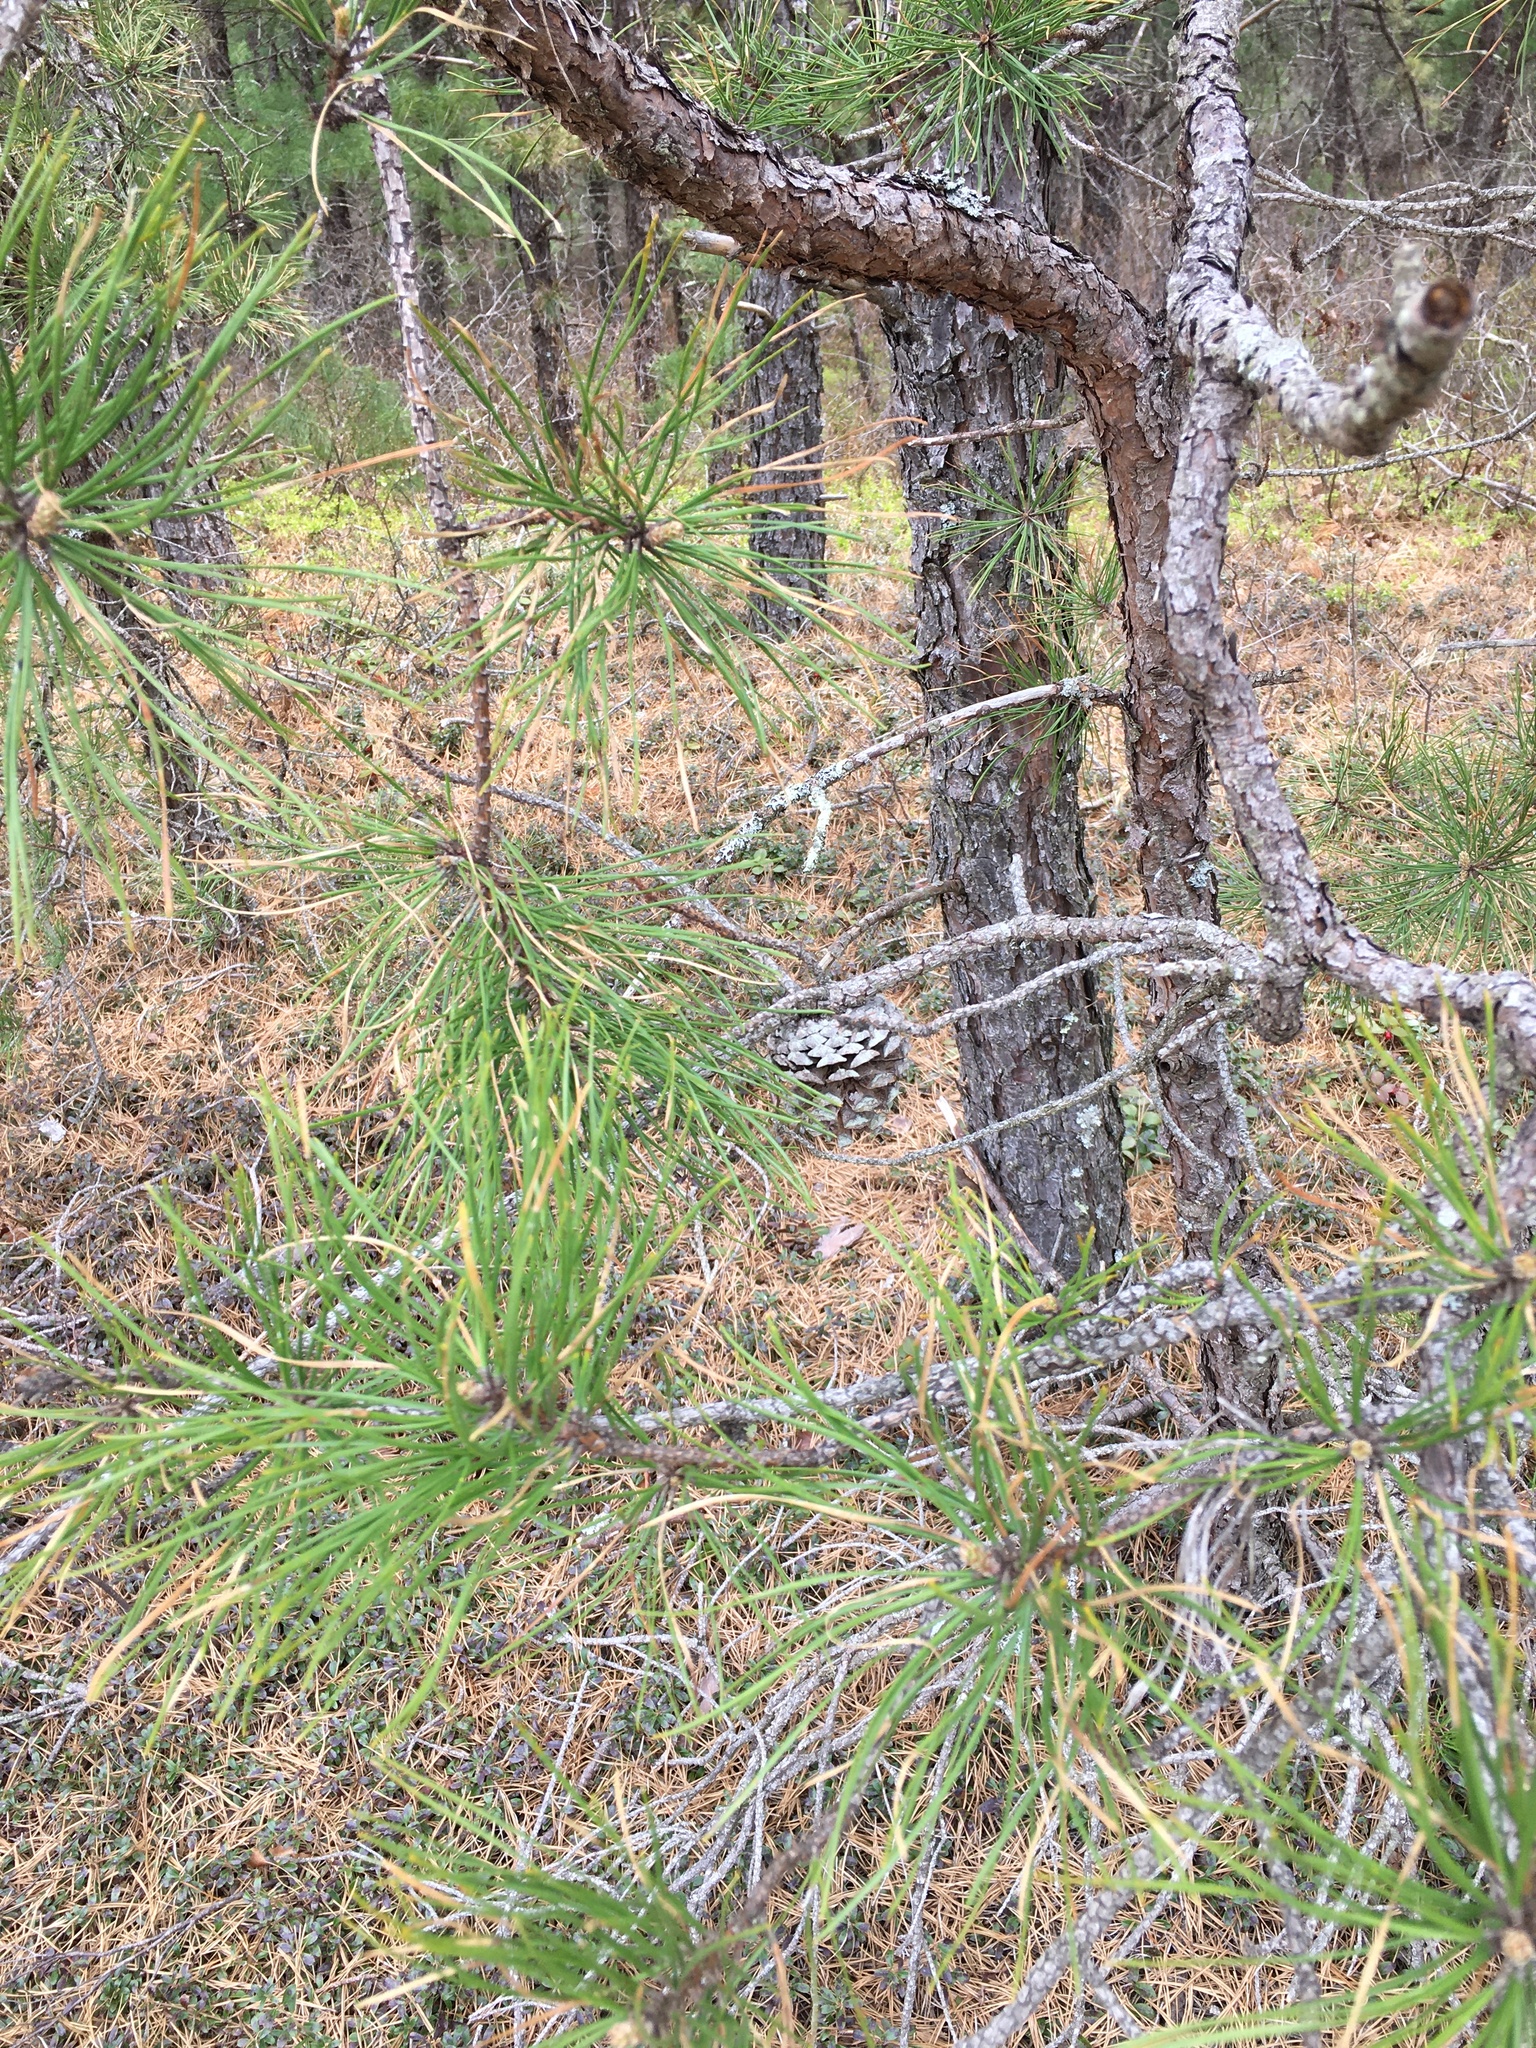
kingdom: Plantae
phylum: Tracheophyta
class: Pinopsida
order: Pinales
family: Pinaceae
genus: Pinus
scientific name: Pinus rigida
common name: Pitch pine
